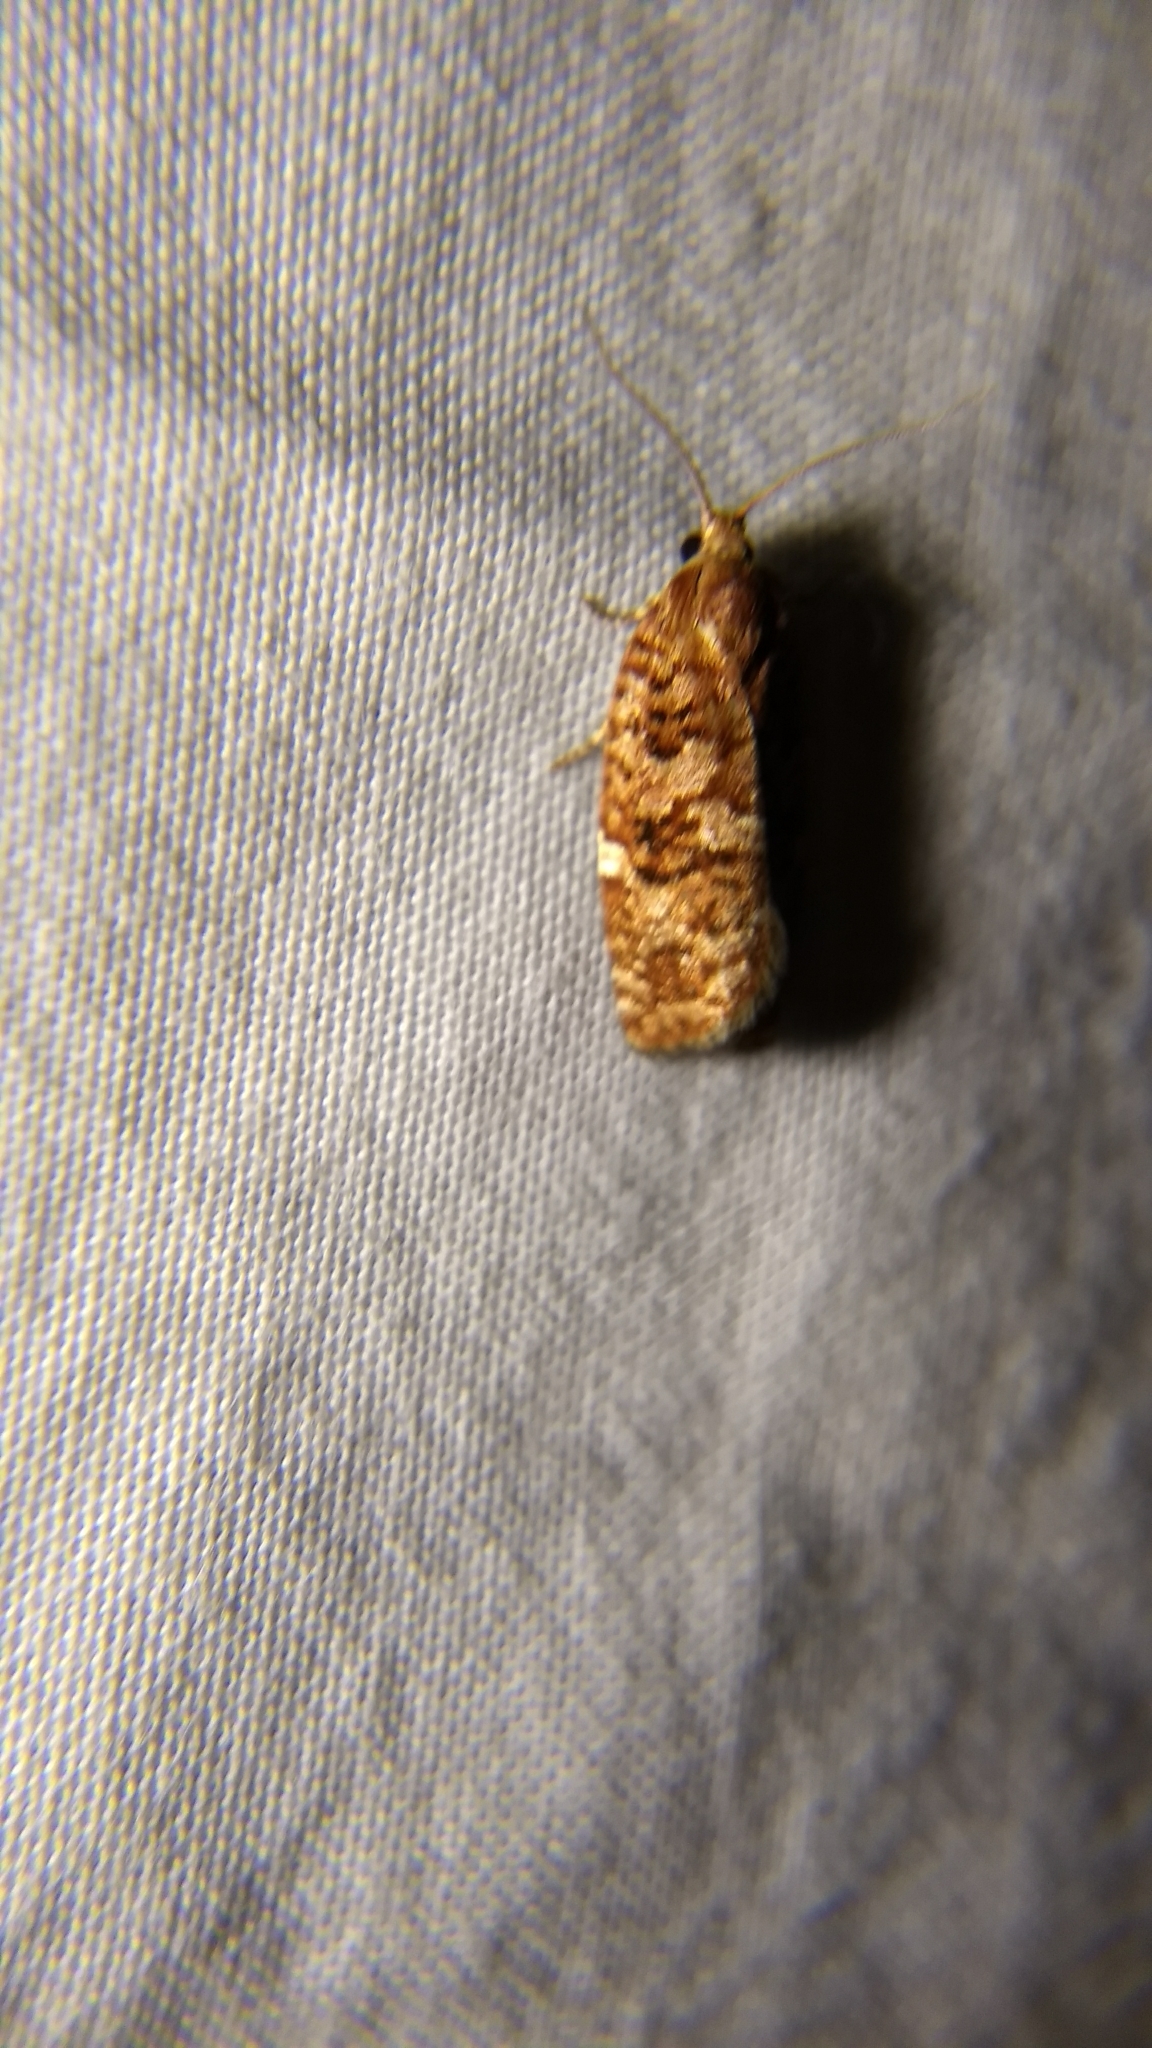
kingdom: Animalia
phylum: Arthropoda
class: Insecta
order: Lepidoptera
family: Tortricidae
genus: Choristoneura
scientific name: Choristoneura pinus
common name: Jack pine budworm
